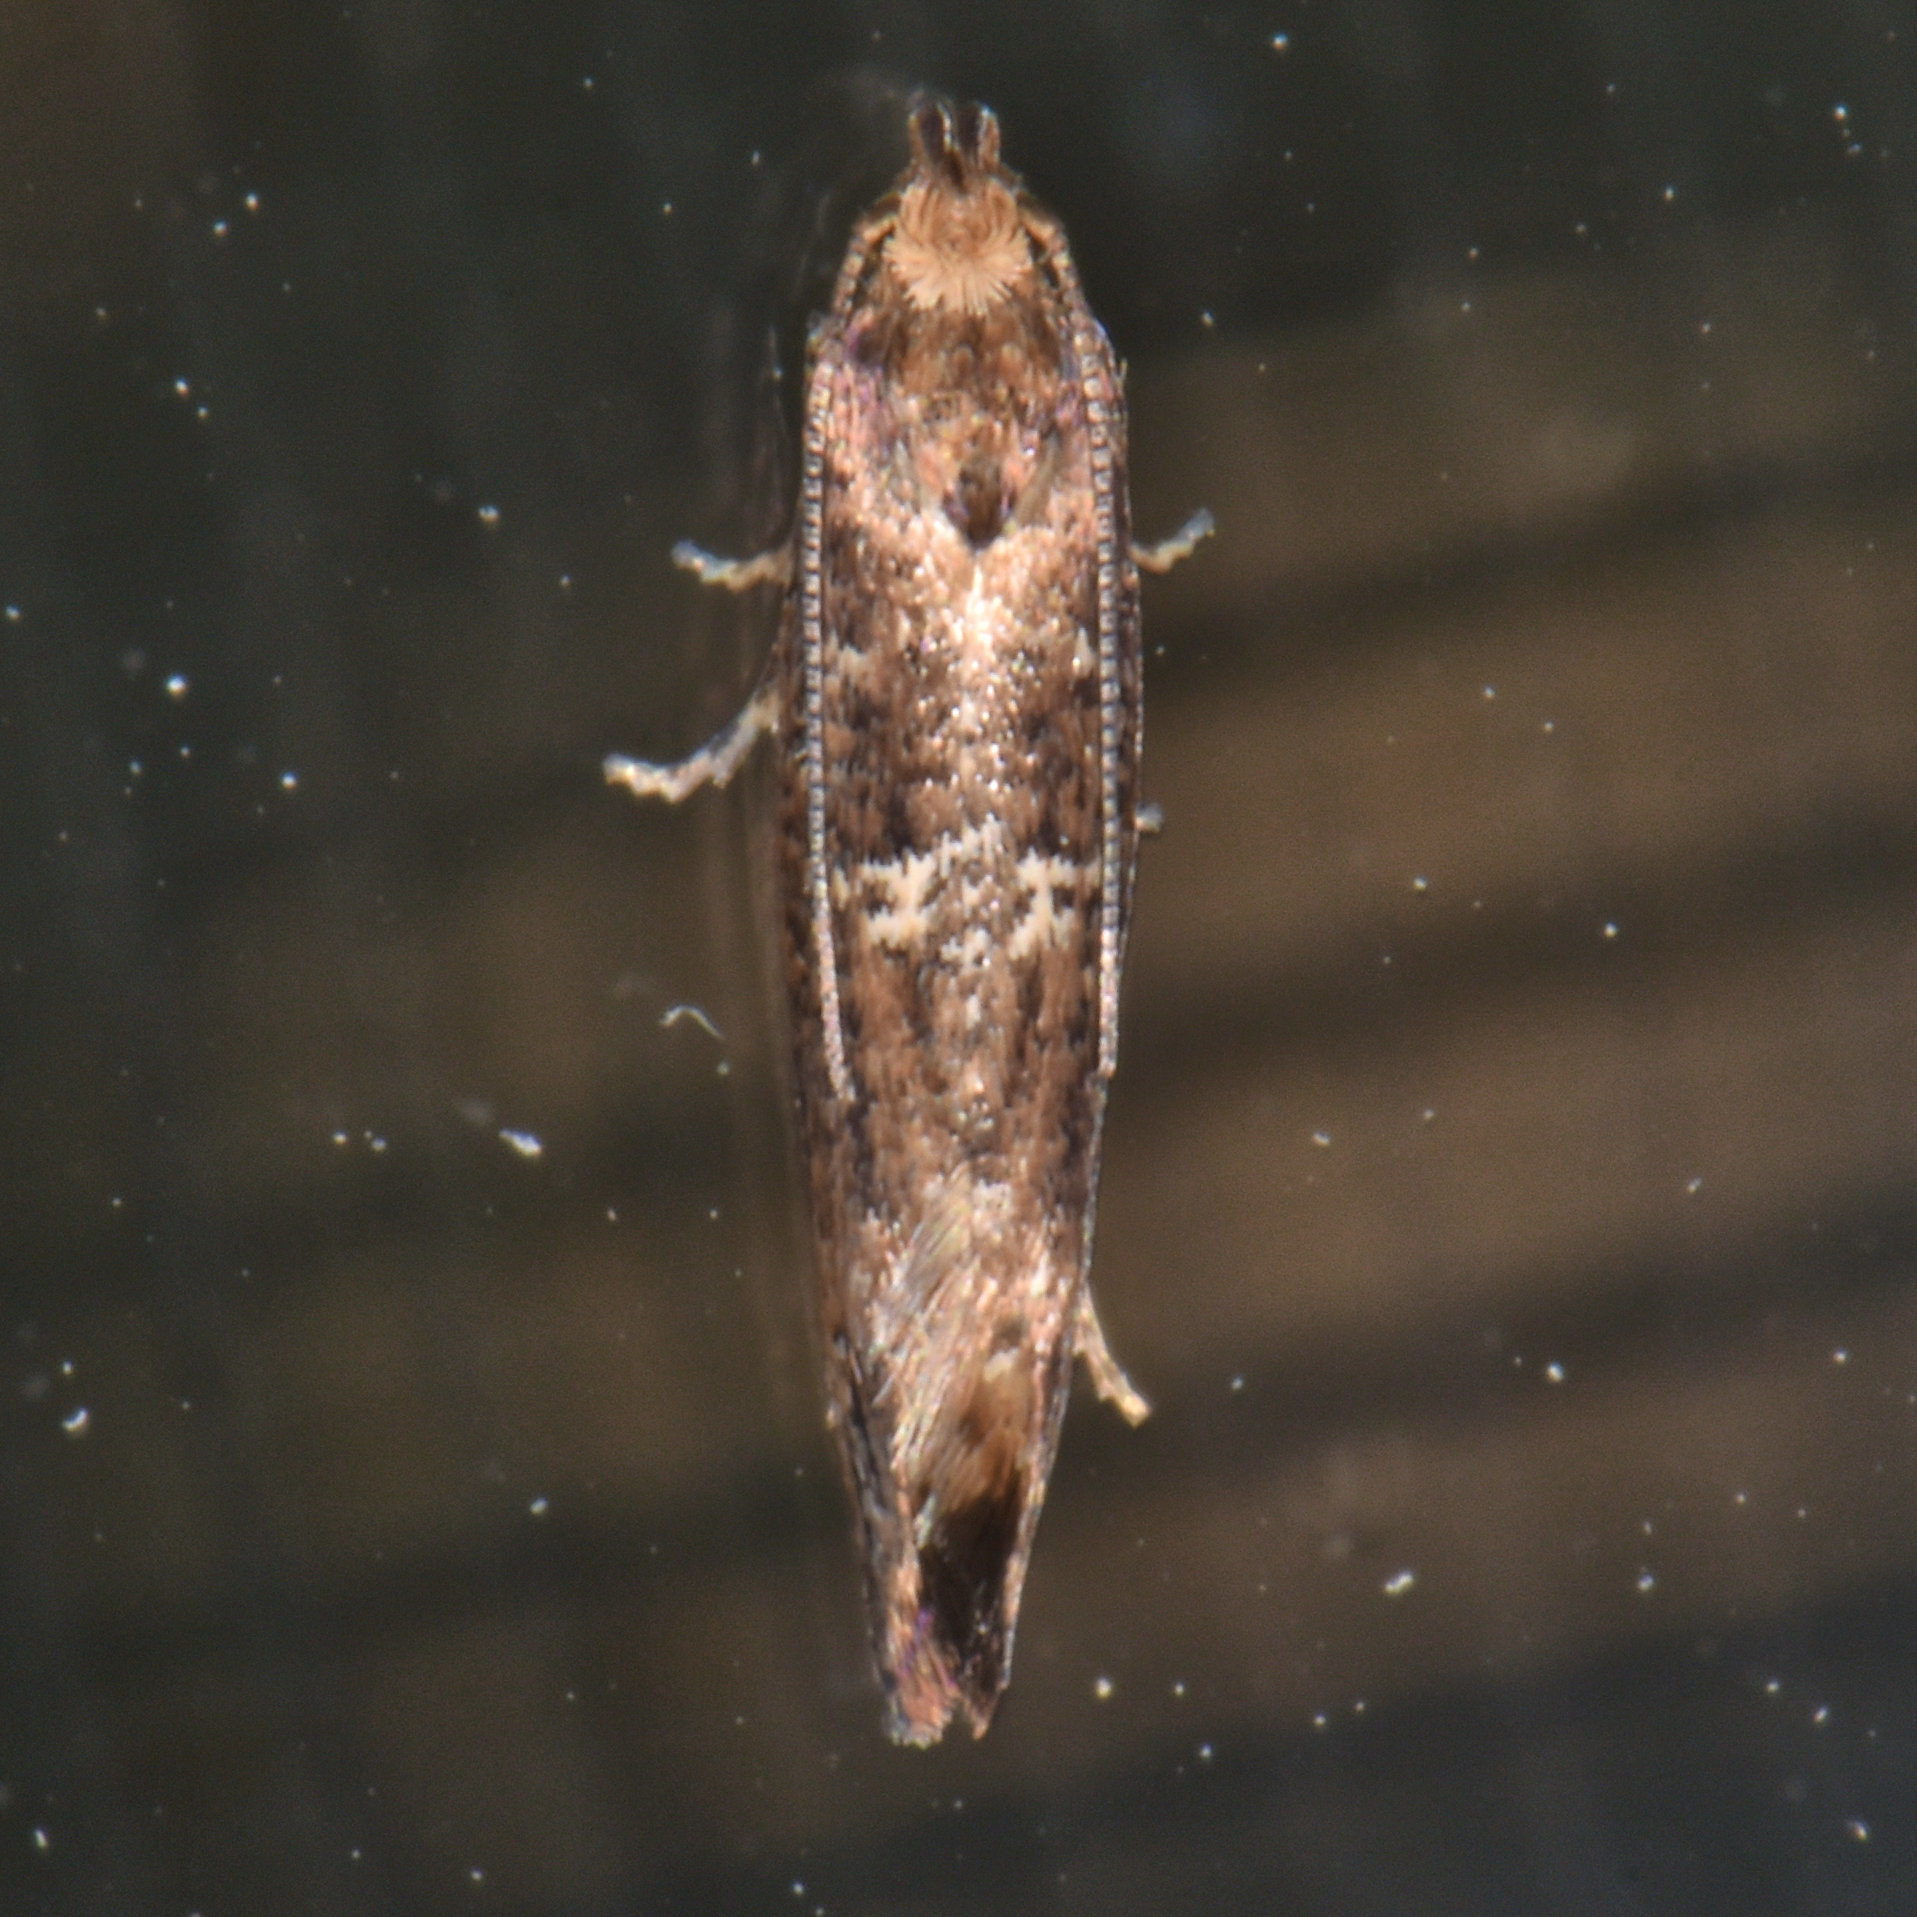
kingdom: Animalia
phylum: Arthropoda
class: Insecta
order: Lepidoptera
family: Glyphipterigidae
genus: Acrolepia
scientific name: Acrolepia assectella
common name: Onion leaf miner
